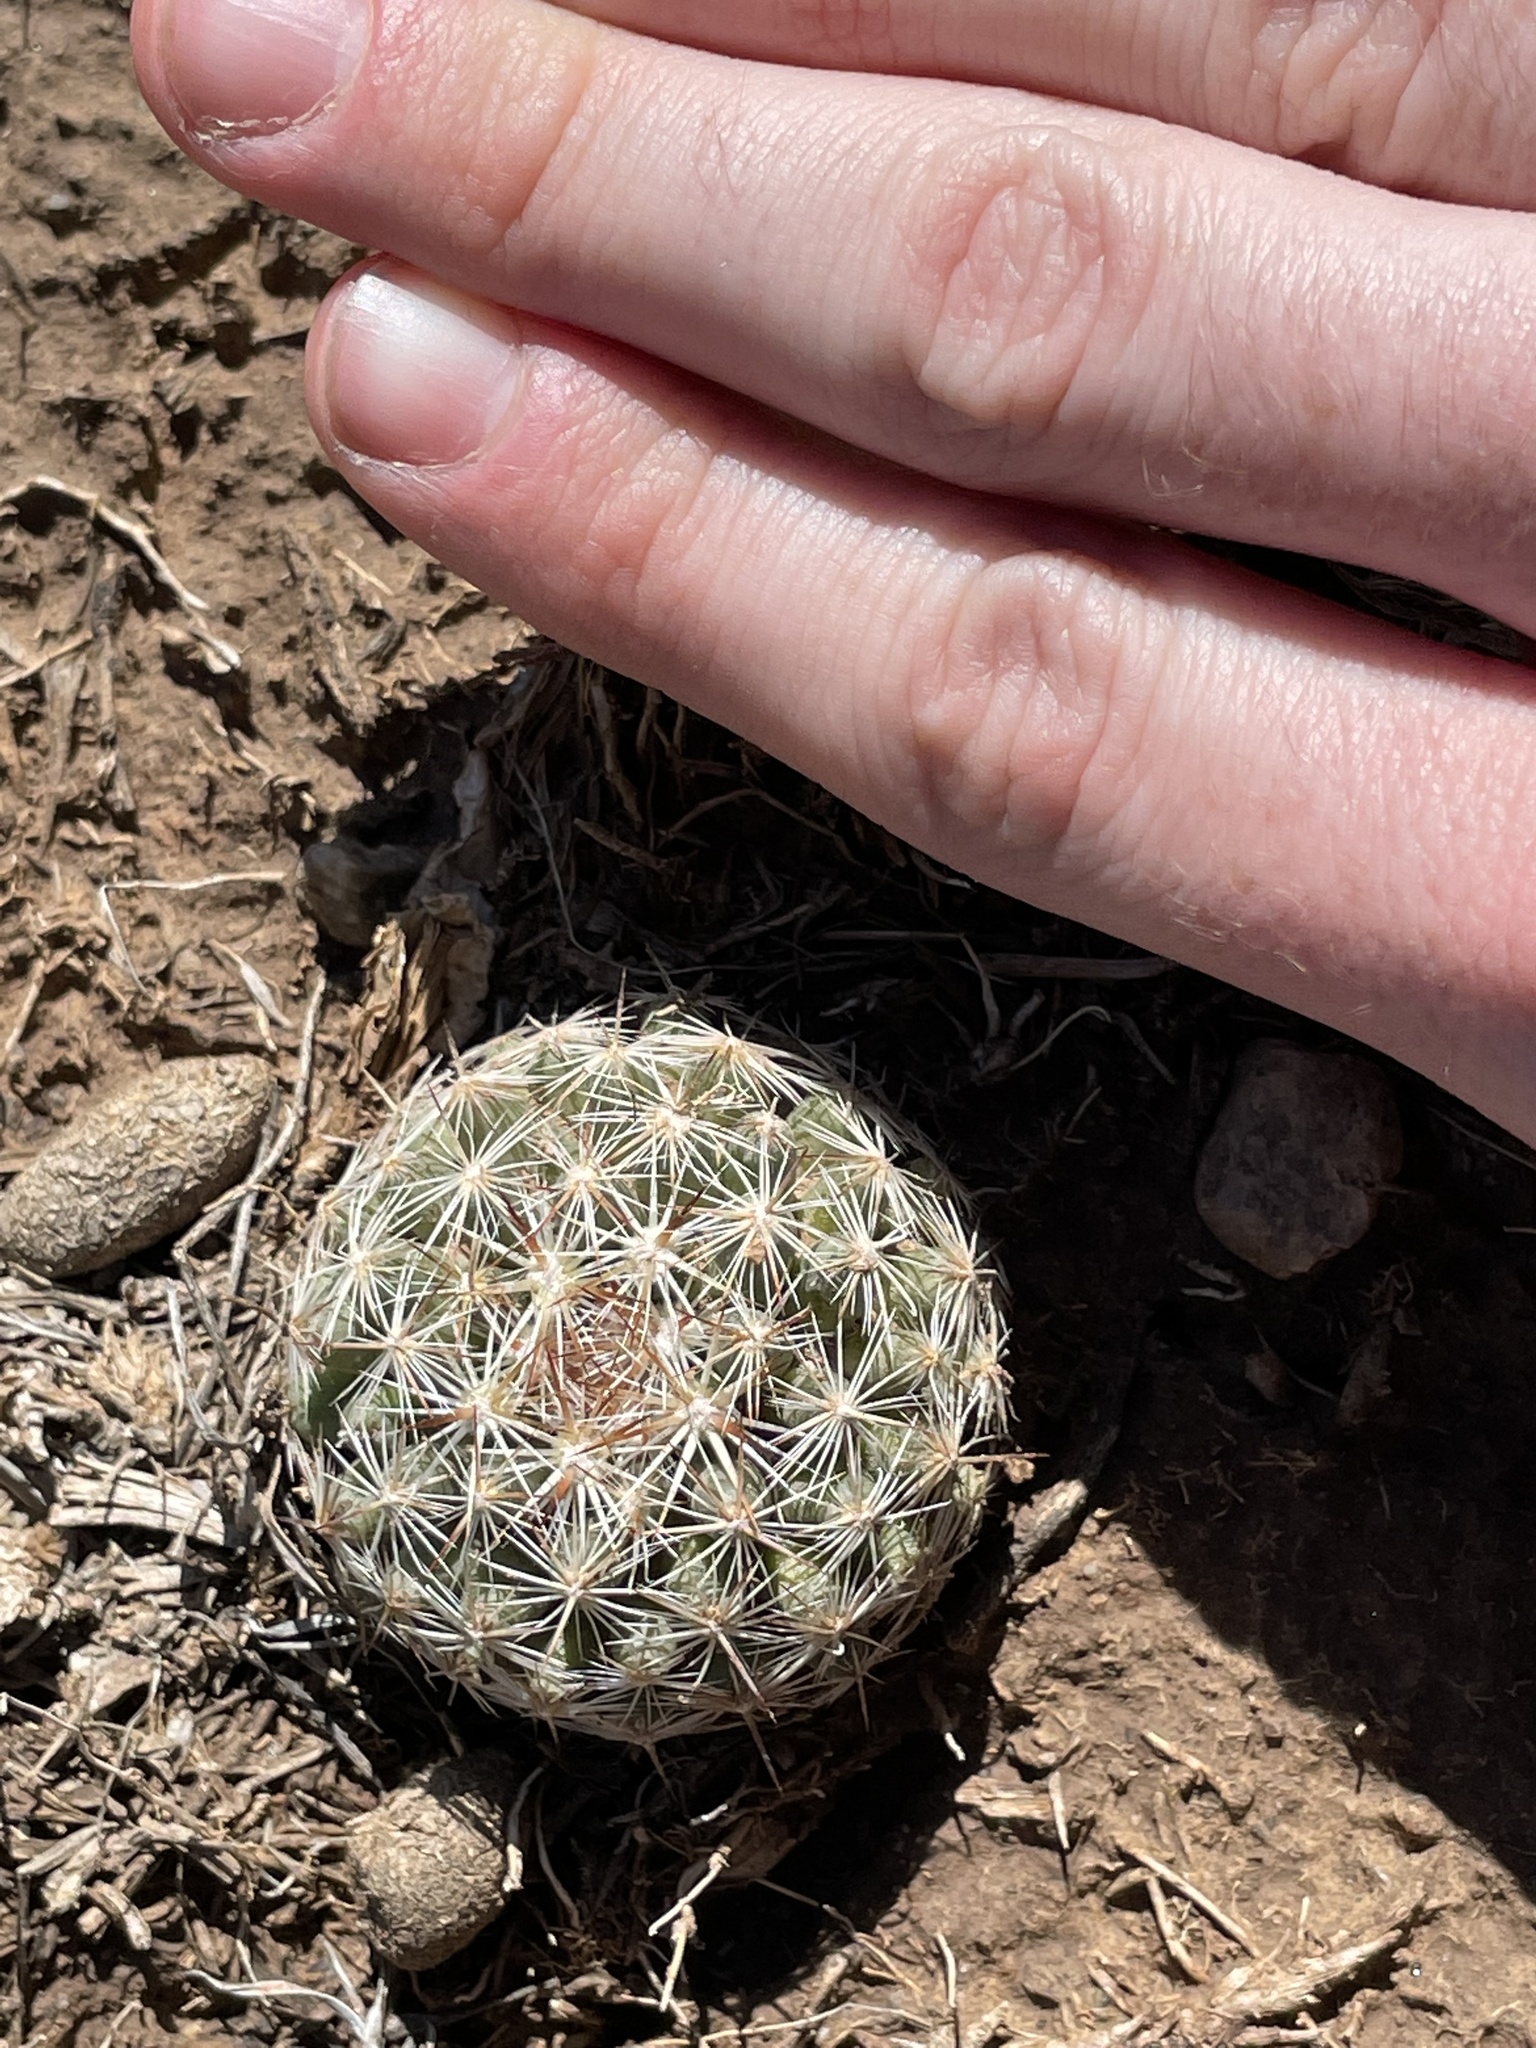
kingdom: Plantae
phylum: Tracheophyta
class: Magnoliopsida
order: Caryophyllales
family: Cactaceae
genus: Pelecyphora
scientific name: Pelecyphora vivipara
